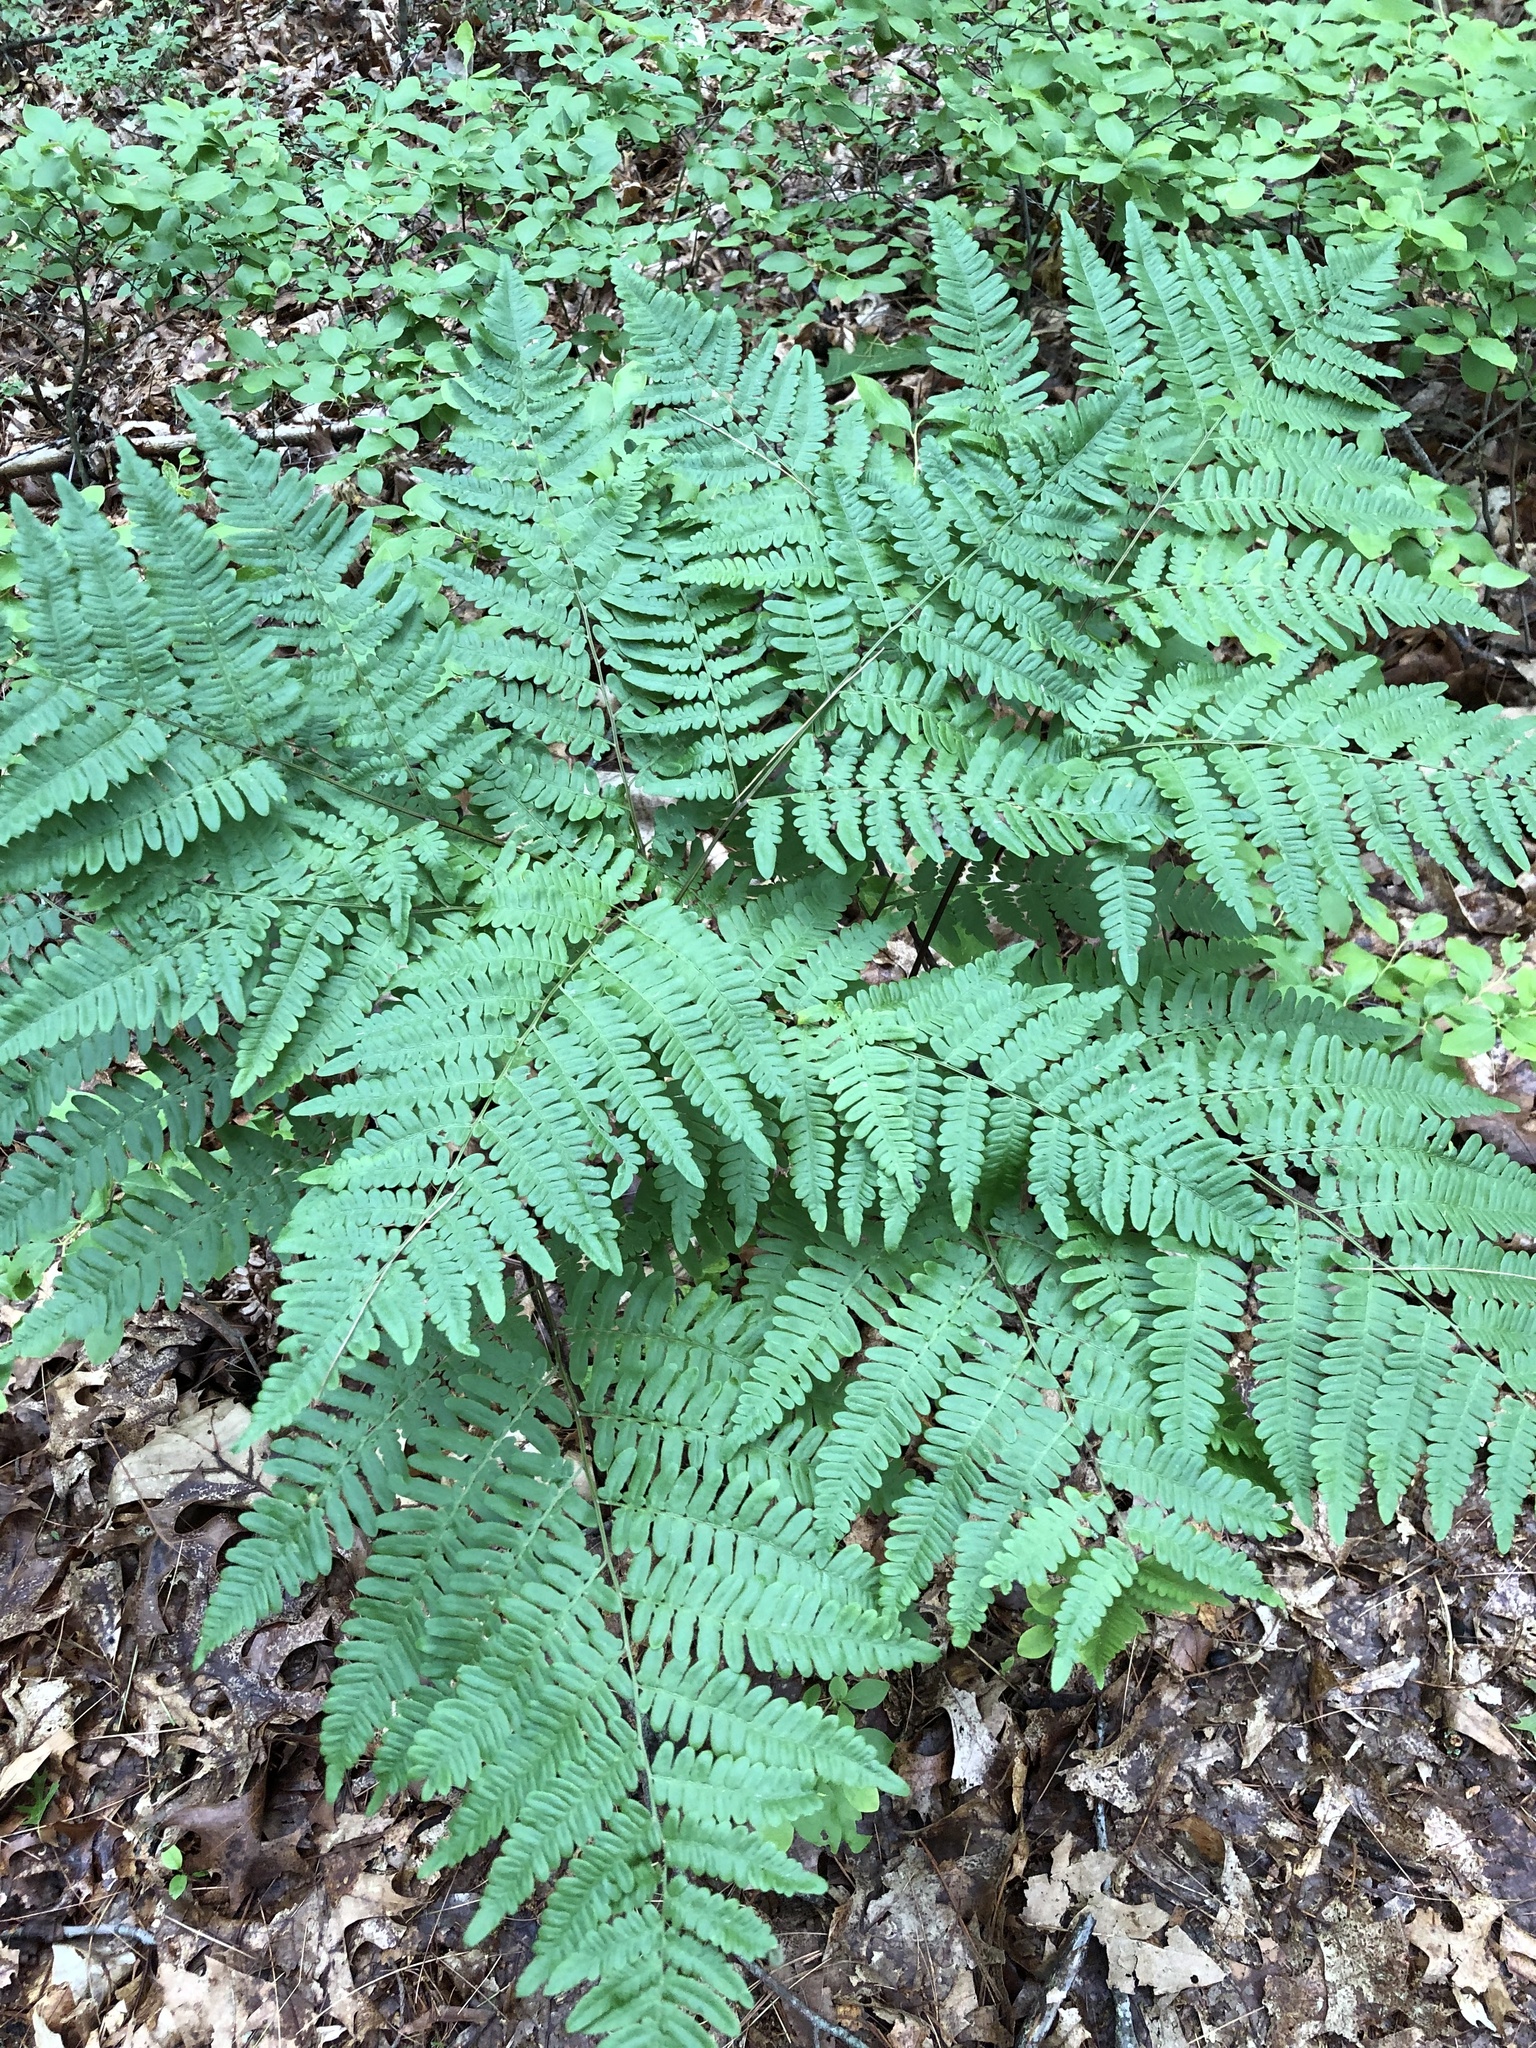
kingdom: Plantae
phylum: Tracheophyta
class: Polypodiopsida
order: Polypodiales
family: Dennstaedtiaceae
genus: Pteridium
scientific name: Pteridium aquilinum
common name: Bracken
